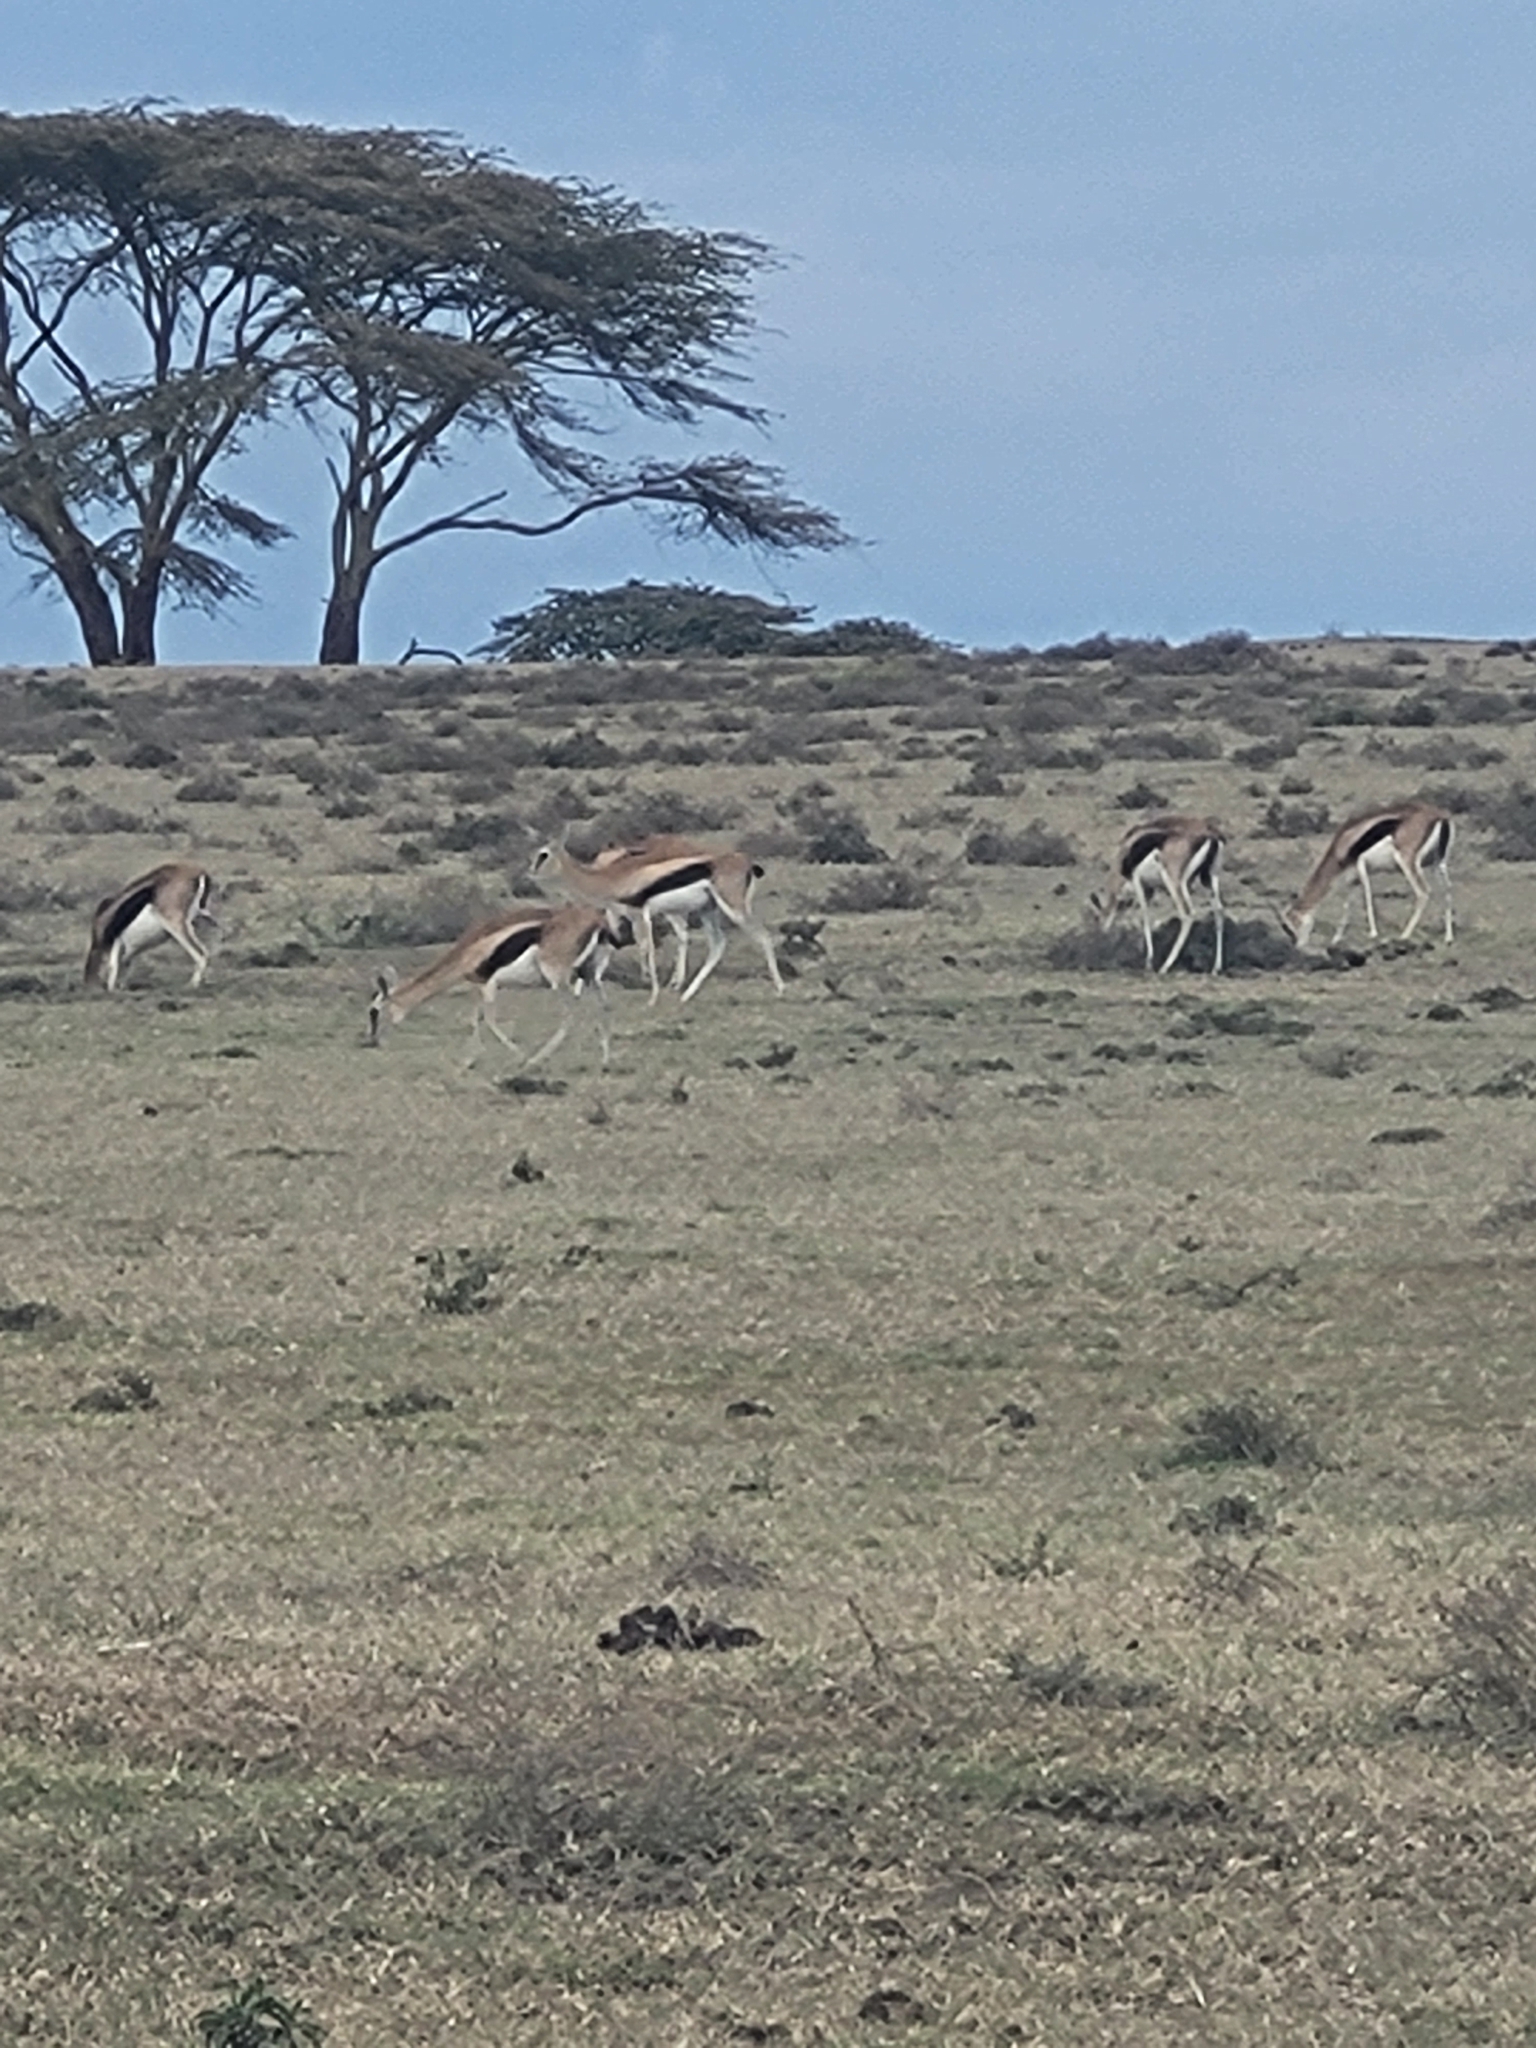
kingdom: Animalia
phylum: Chordata
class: Mammalia
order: Artiodactyla
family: Bovidae
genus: Eudorcas
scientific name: Eudorcas thomsonii
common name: Thomson's gazelle
